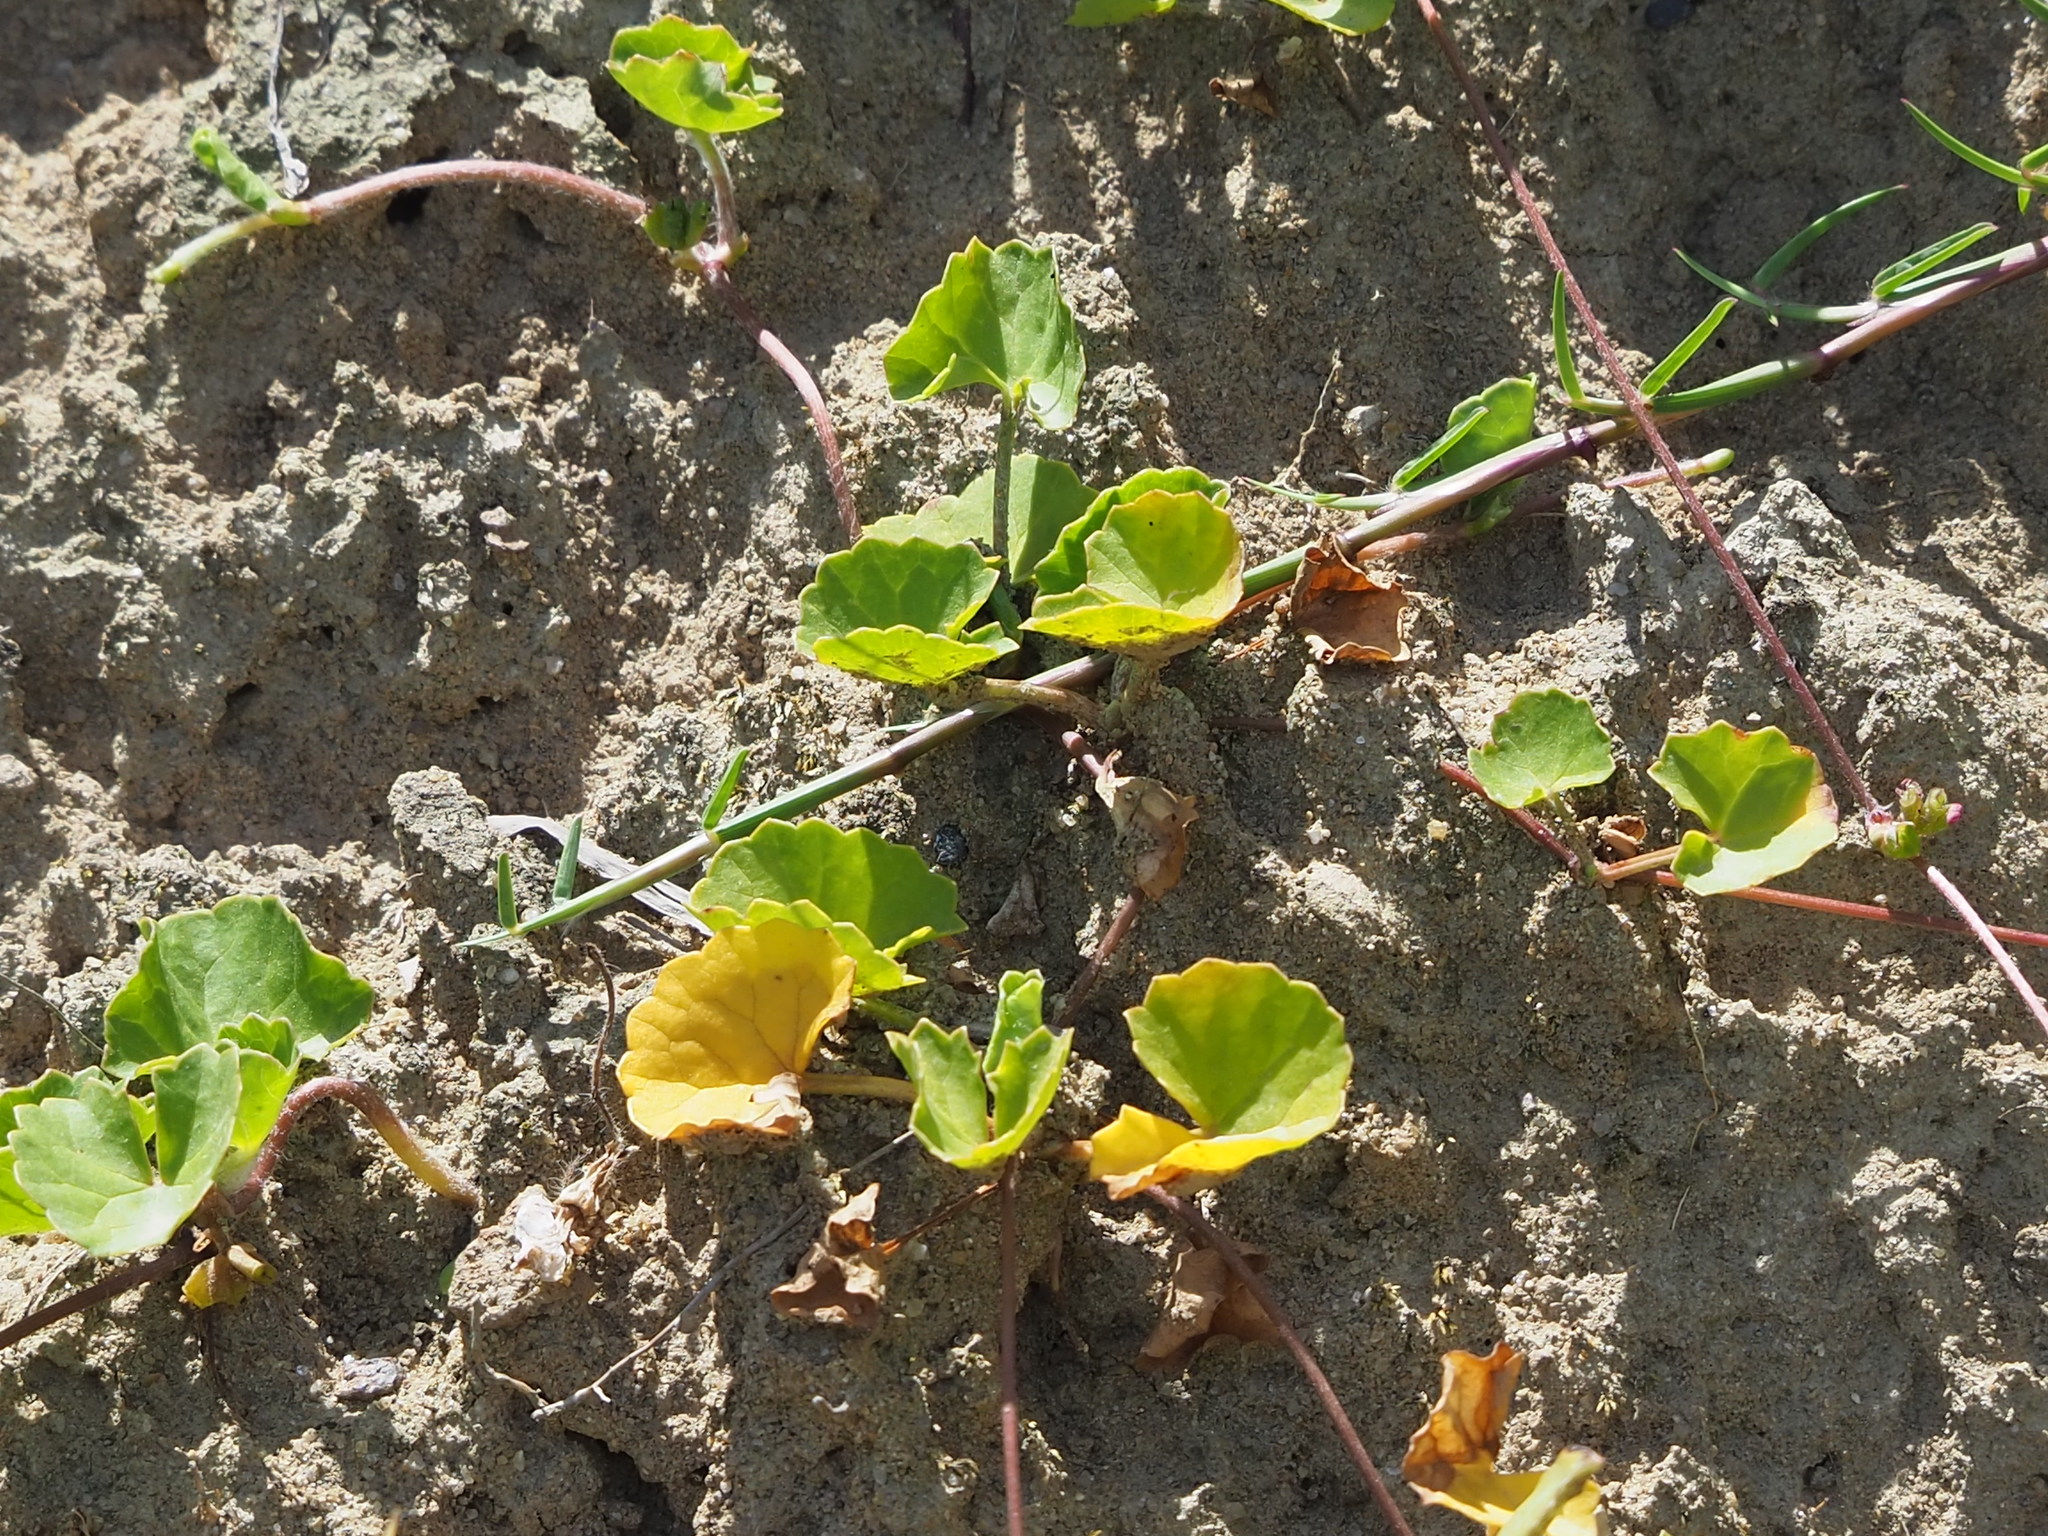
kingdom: Plantae
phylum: Tracheophyta
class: Magnoliopsida
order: Apiales
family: Apiaceae
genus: Centella
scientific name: Centella asiatica
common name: Spadeleaf
